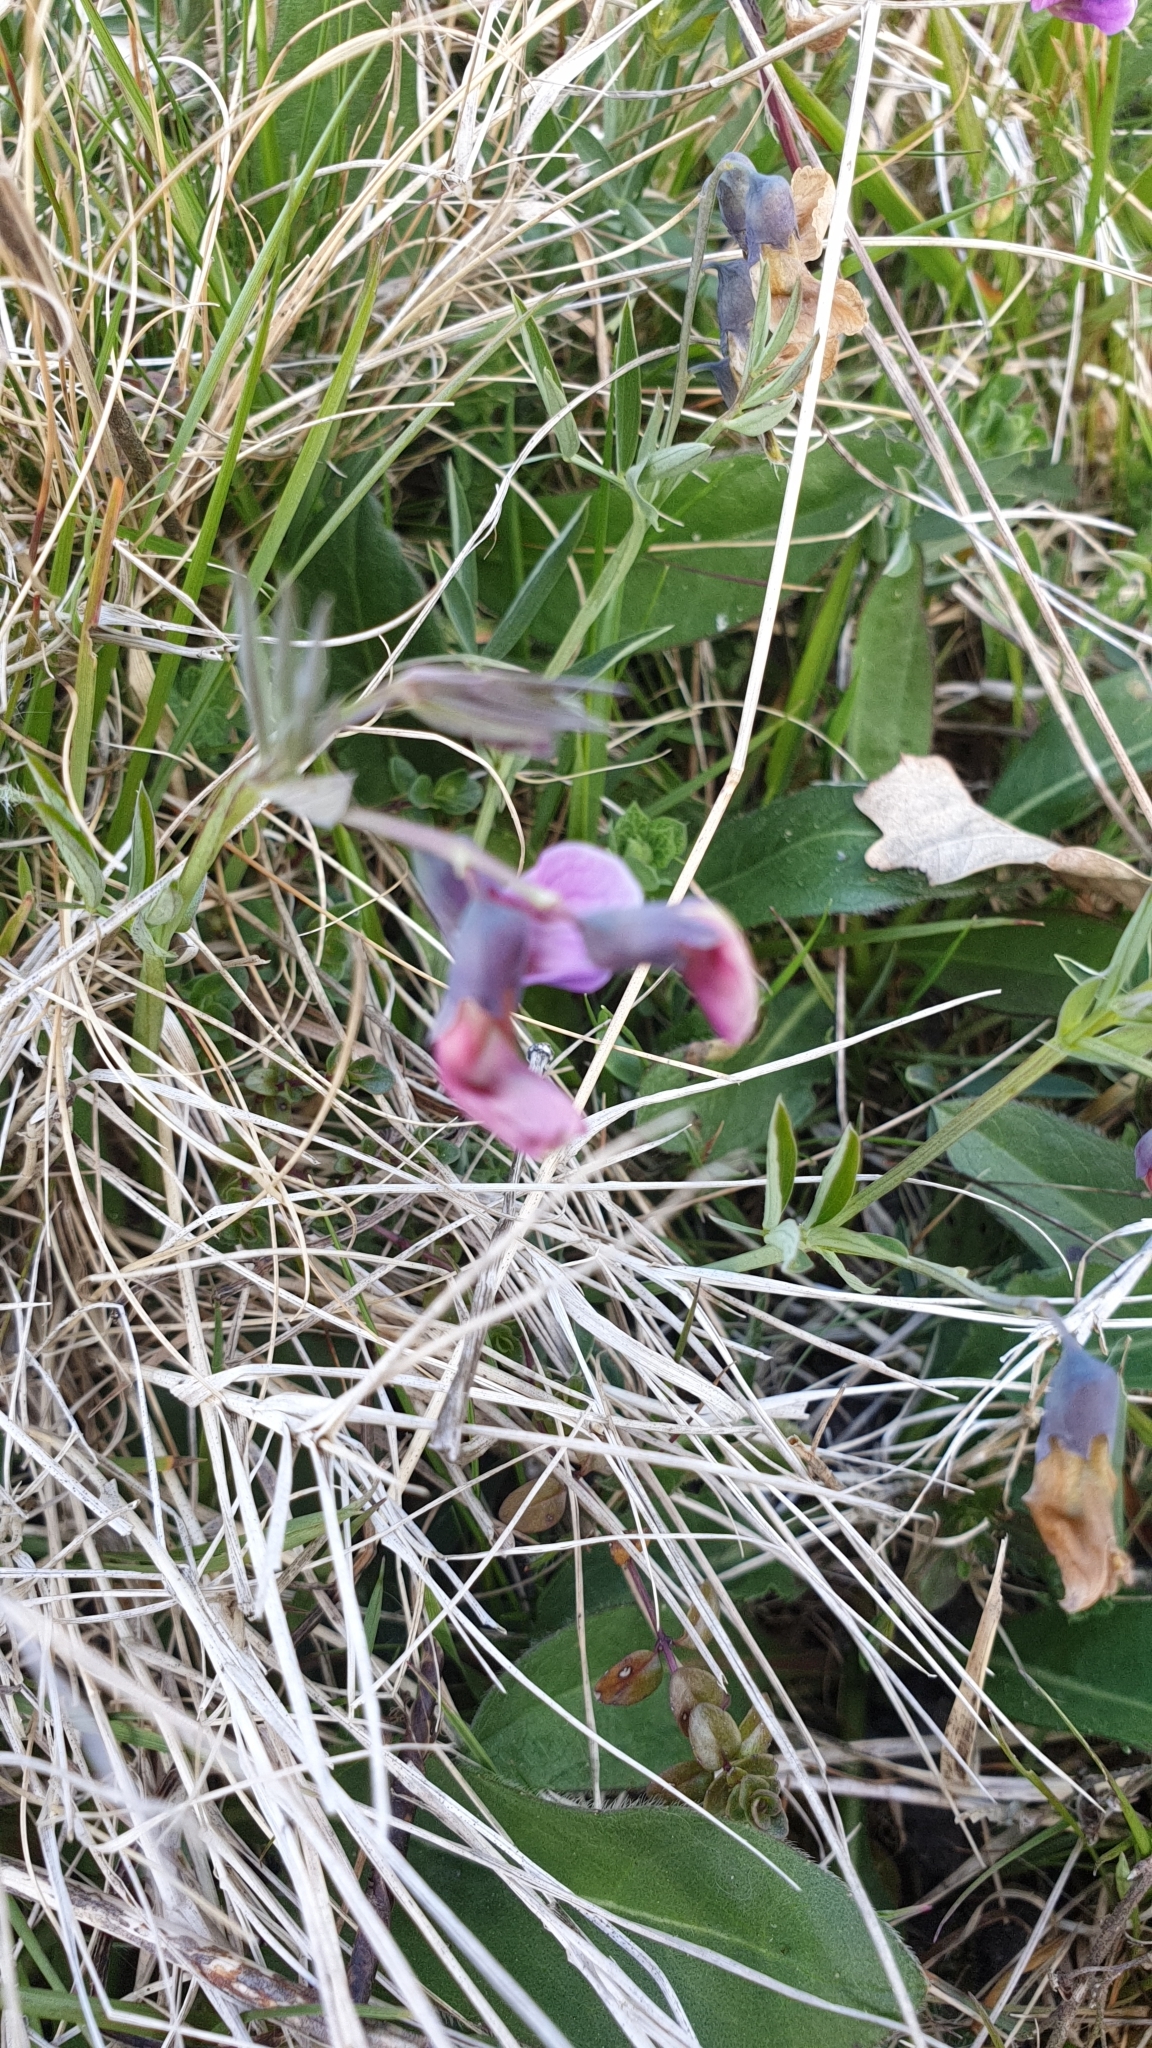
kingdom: Plantae
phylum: Tracheophyta
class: Magnoliopsida
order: Fabales
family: Fabaceae
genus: Lathyrus
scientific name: Lathyrus linifolius
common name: Bitter-vetch
